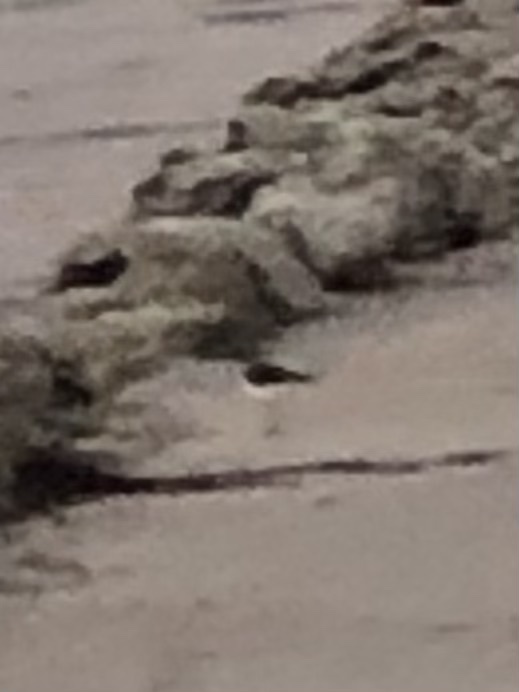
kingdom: Animalia
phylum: Chordata
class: Aves
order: Charadriiformes
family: Scolopacidae
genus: Arenaria
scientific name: Arenaria interpres
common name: Ruddy turnstone
